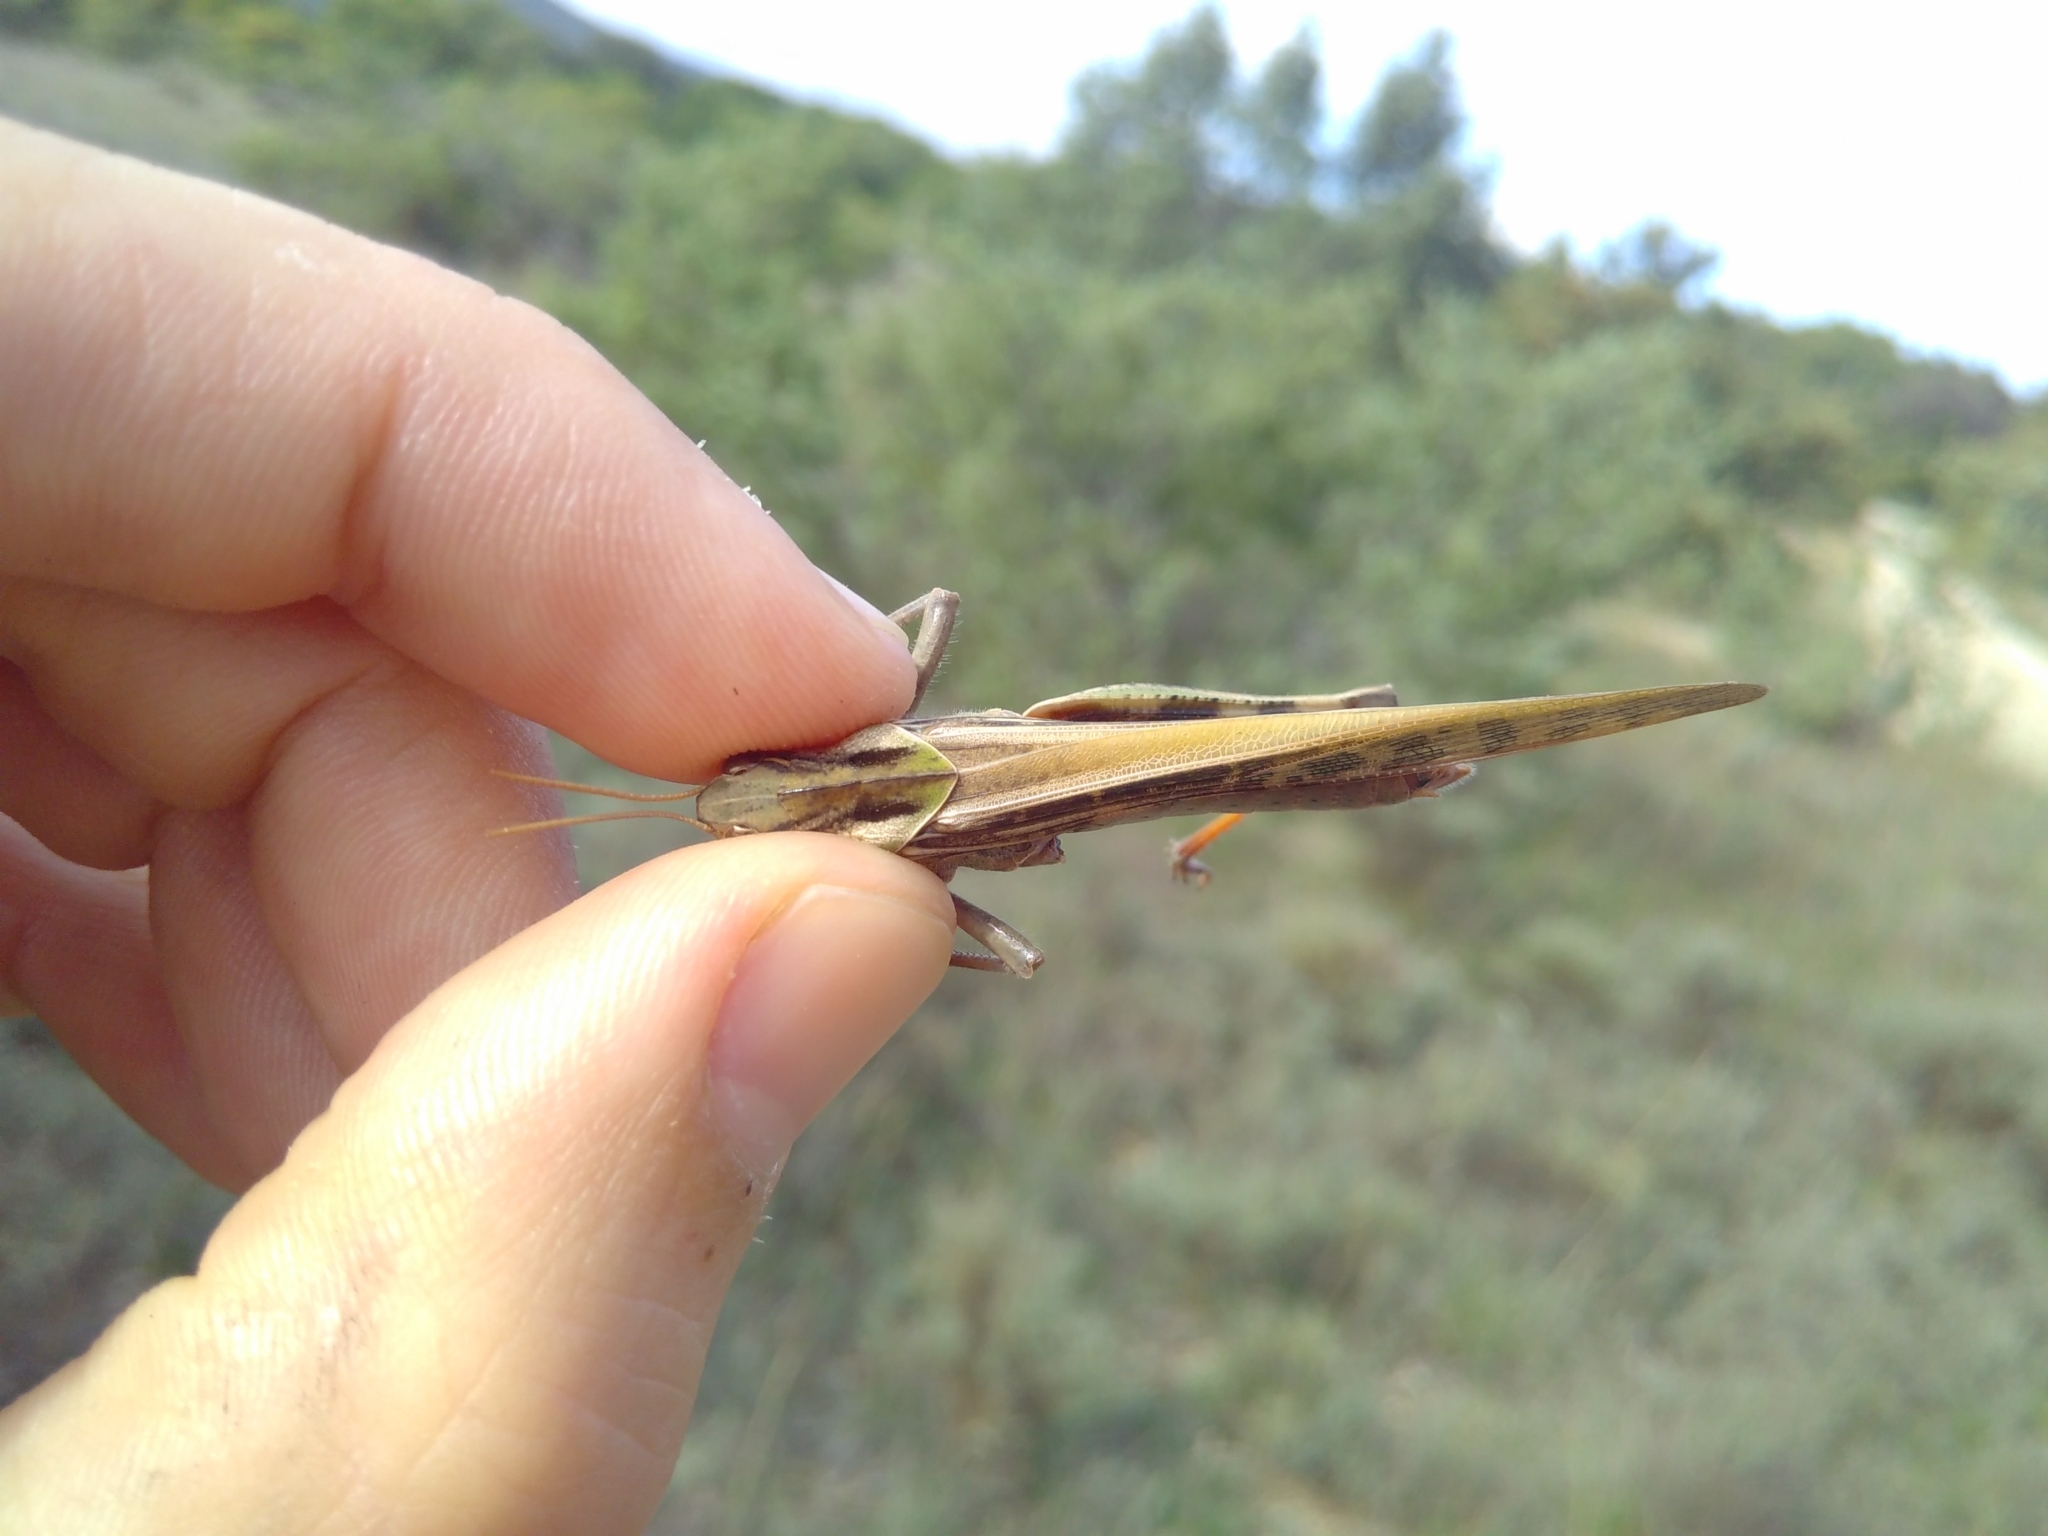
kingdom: Animalia
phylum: Arthropoda
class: Insecta
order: Orthoptera
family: Acrididae
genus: Locusta
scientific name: Locusta migratoria
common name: Migratory locust
